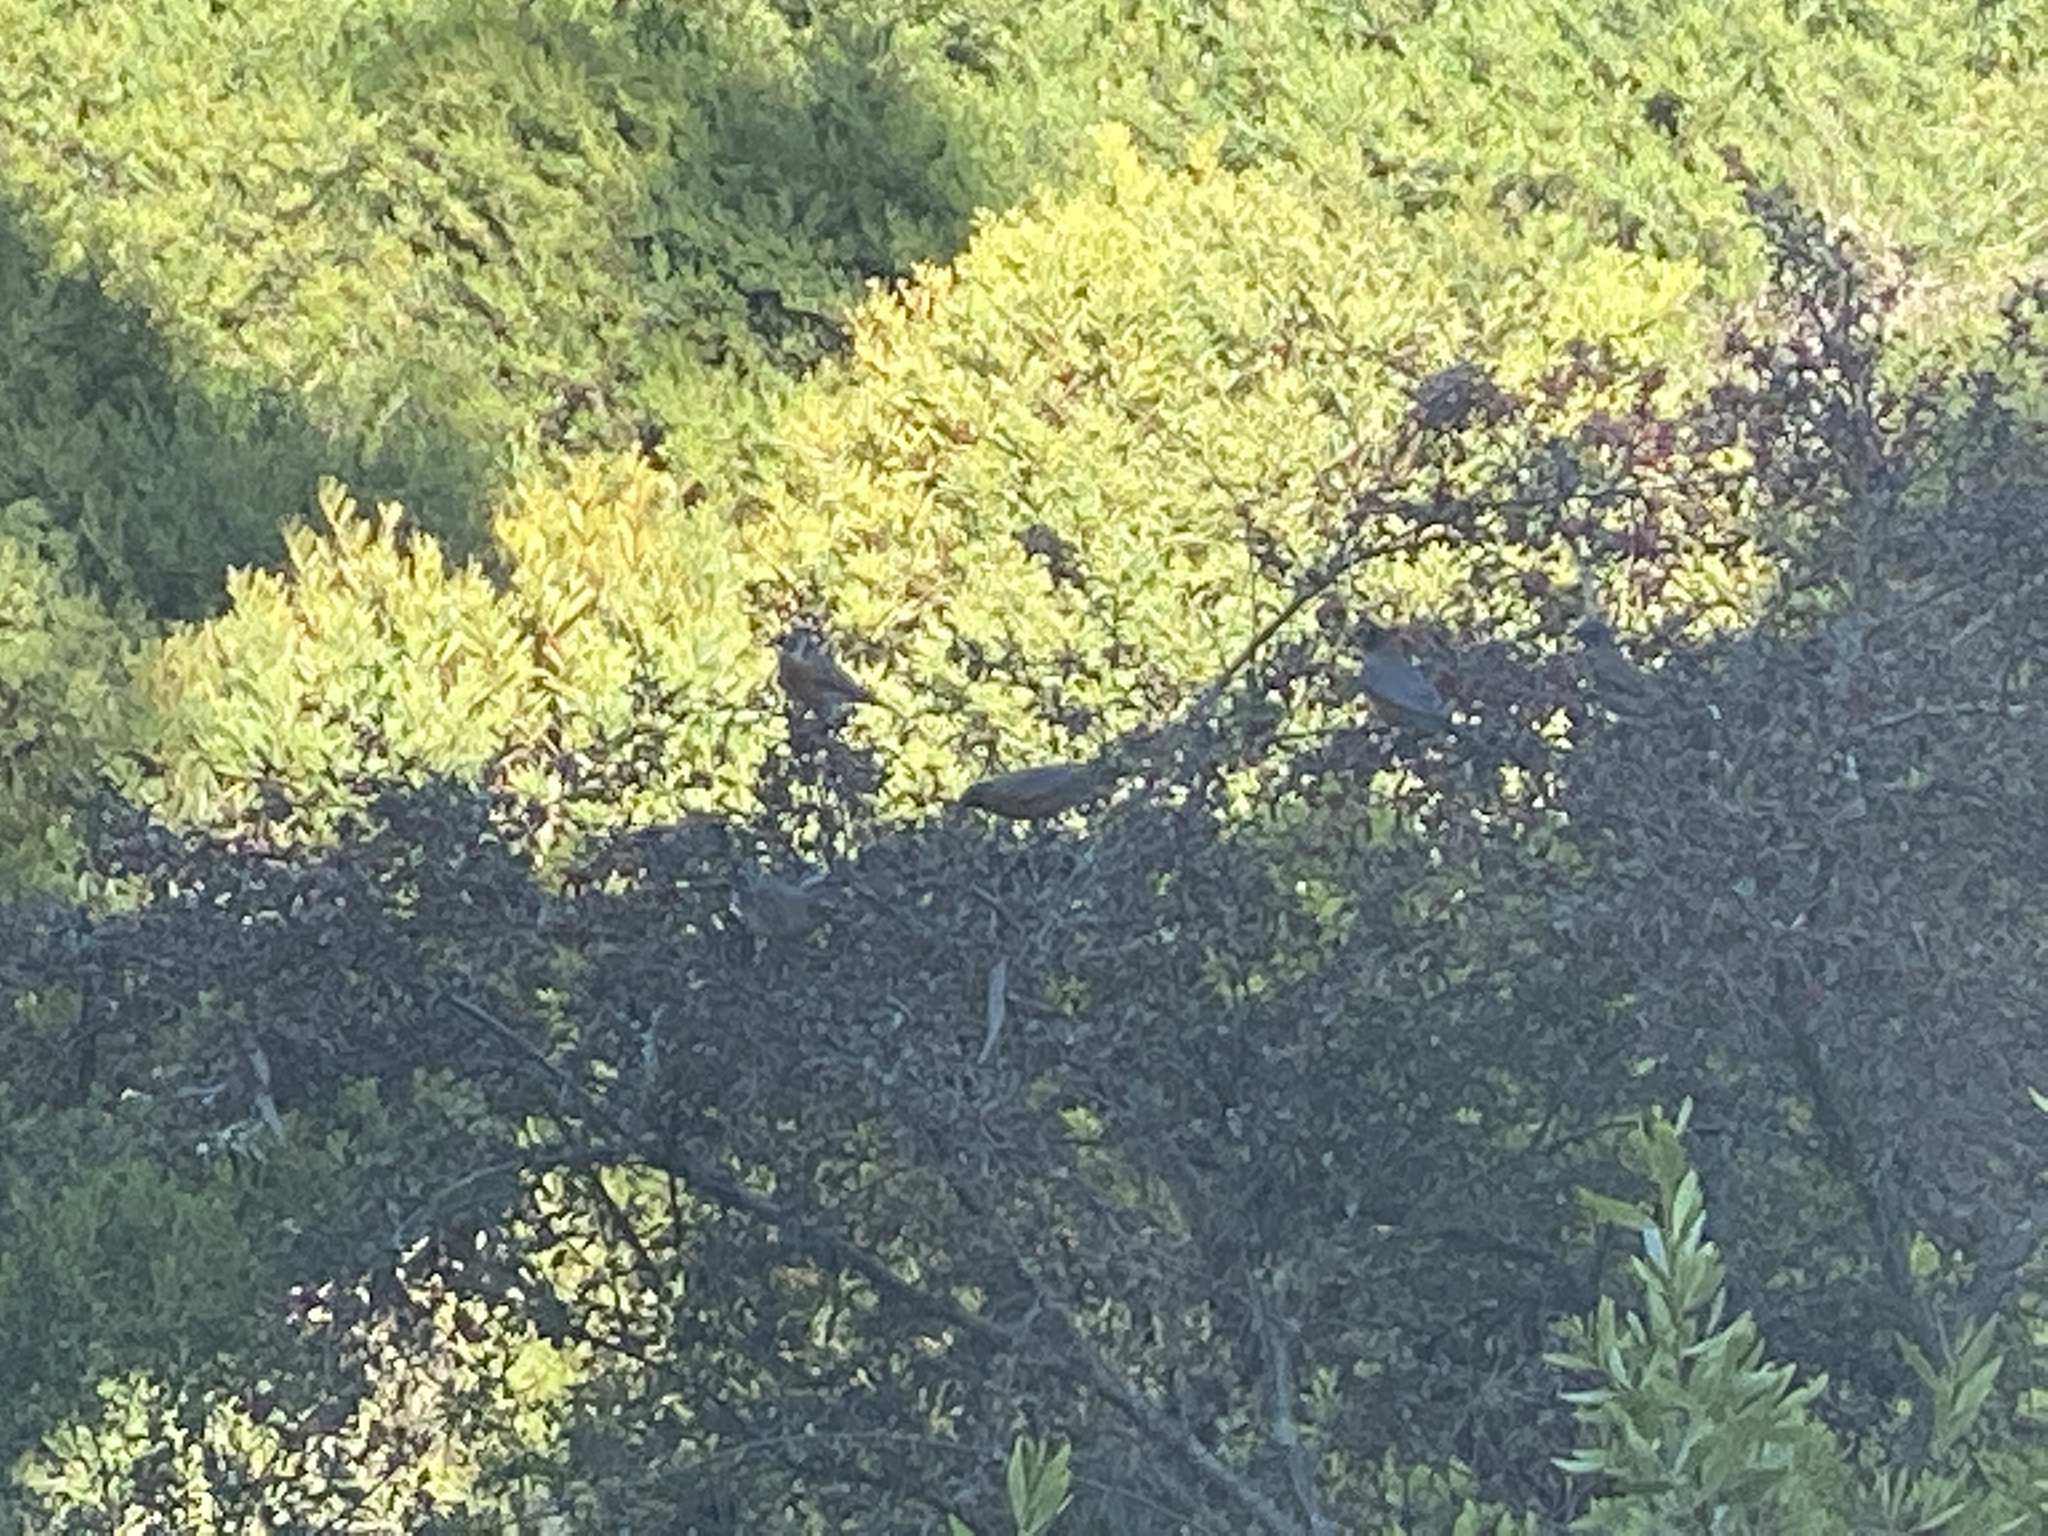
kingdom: Animalia
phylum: Chordata
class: Aves
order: Passeriformes
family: Turdidae
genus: Turdus
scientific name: Turdus migratorius
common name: American robin
